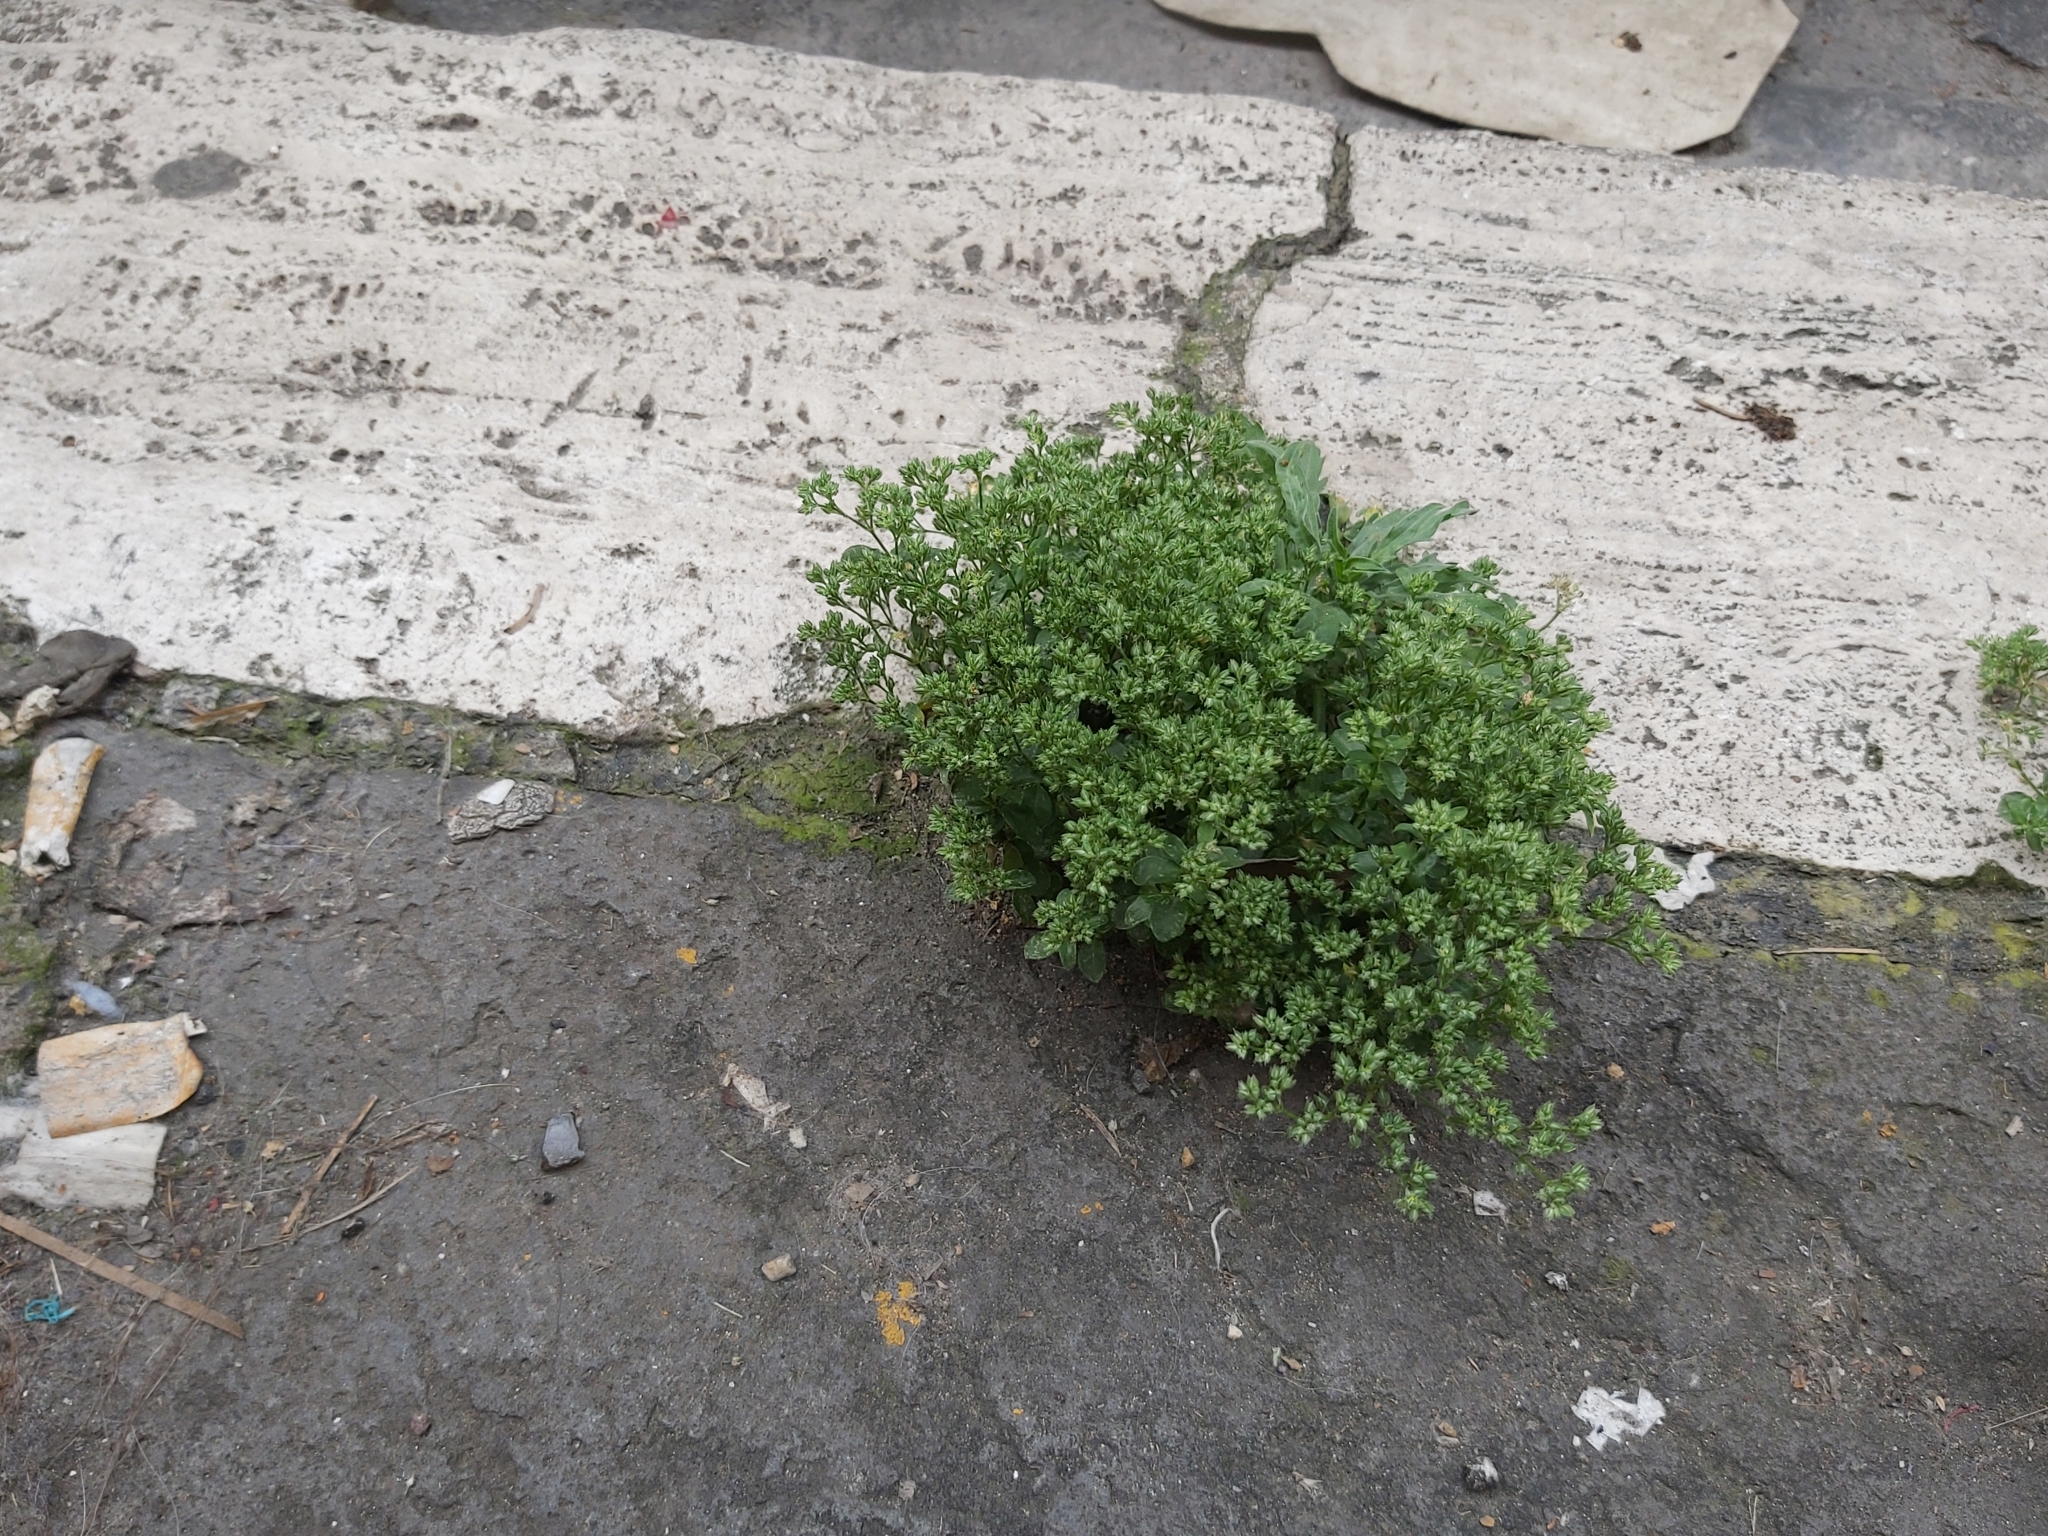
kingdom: Plantae
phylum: Tracheophyta
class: Magnoliopsida
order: Caryophyllales
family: Caryophyllaceae
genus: Polycarpon
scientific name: Polycarpon tetraphyllum
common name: Four-leaved all-seed
